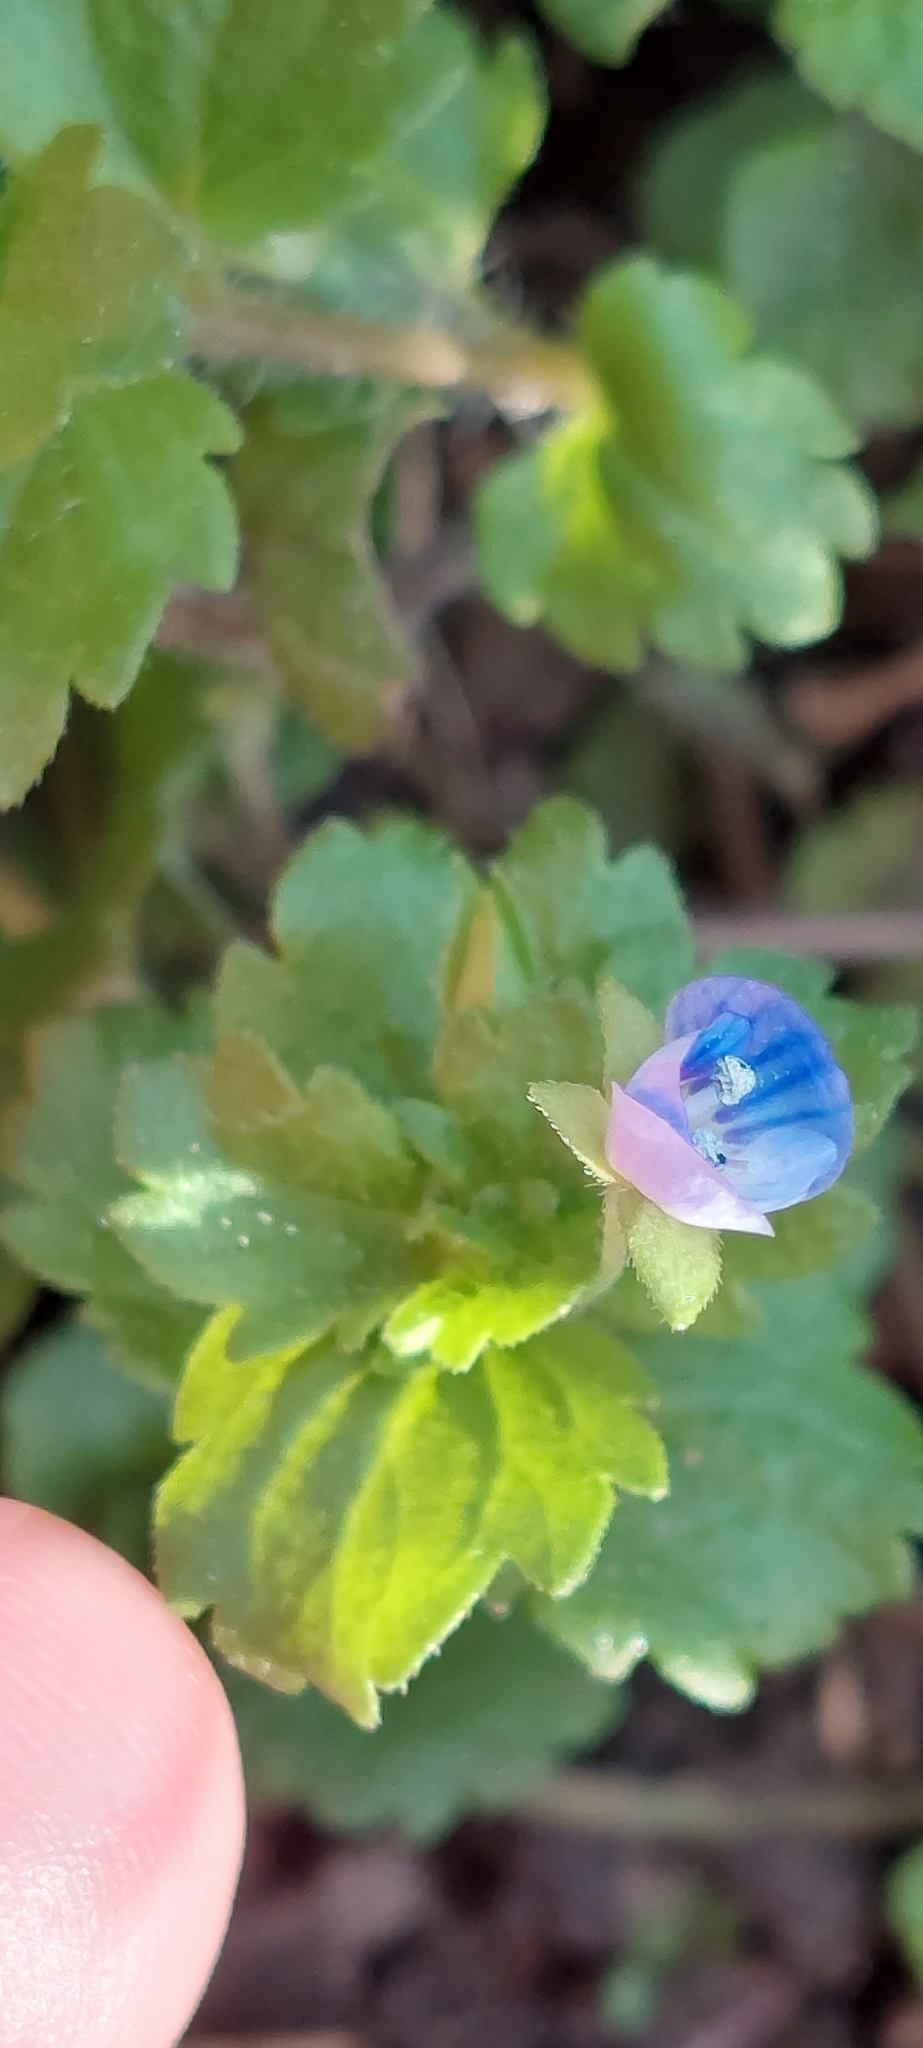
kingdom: Plantae
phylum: Tracheophyta
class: Magnoliopsida
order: Lamiales
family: Plantaginaceae
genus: Veronica
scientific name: Veronica persica
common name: Common field-speedwell
